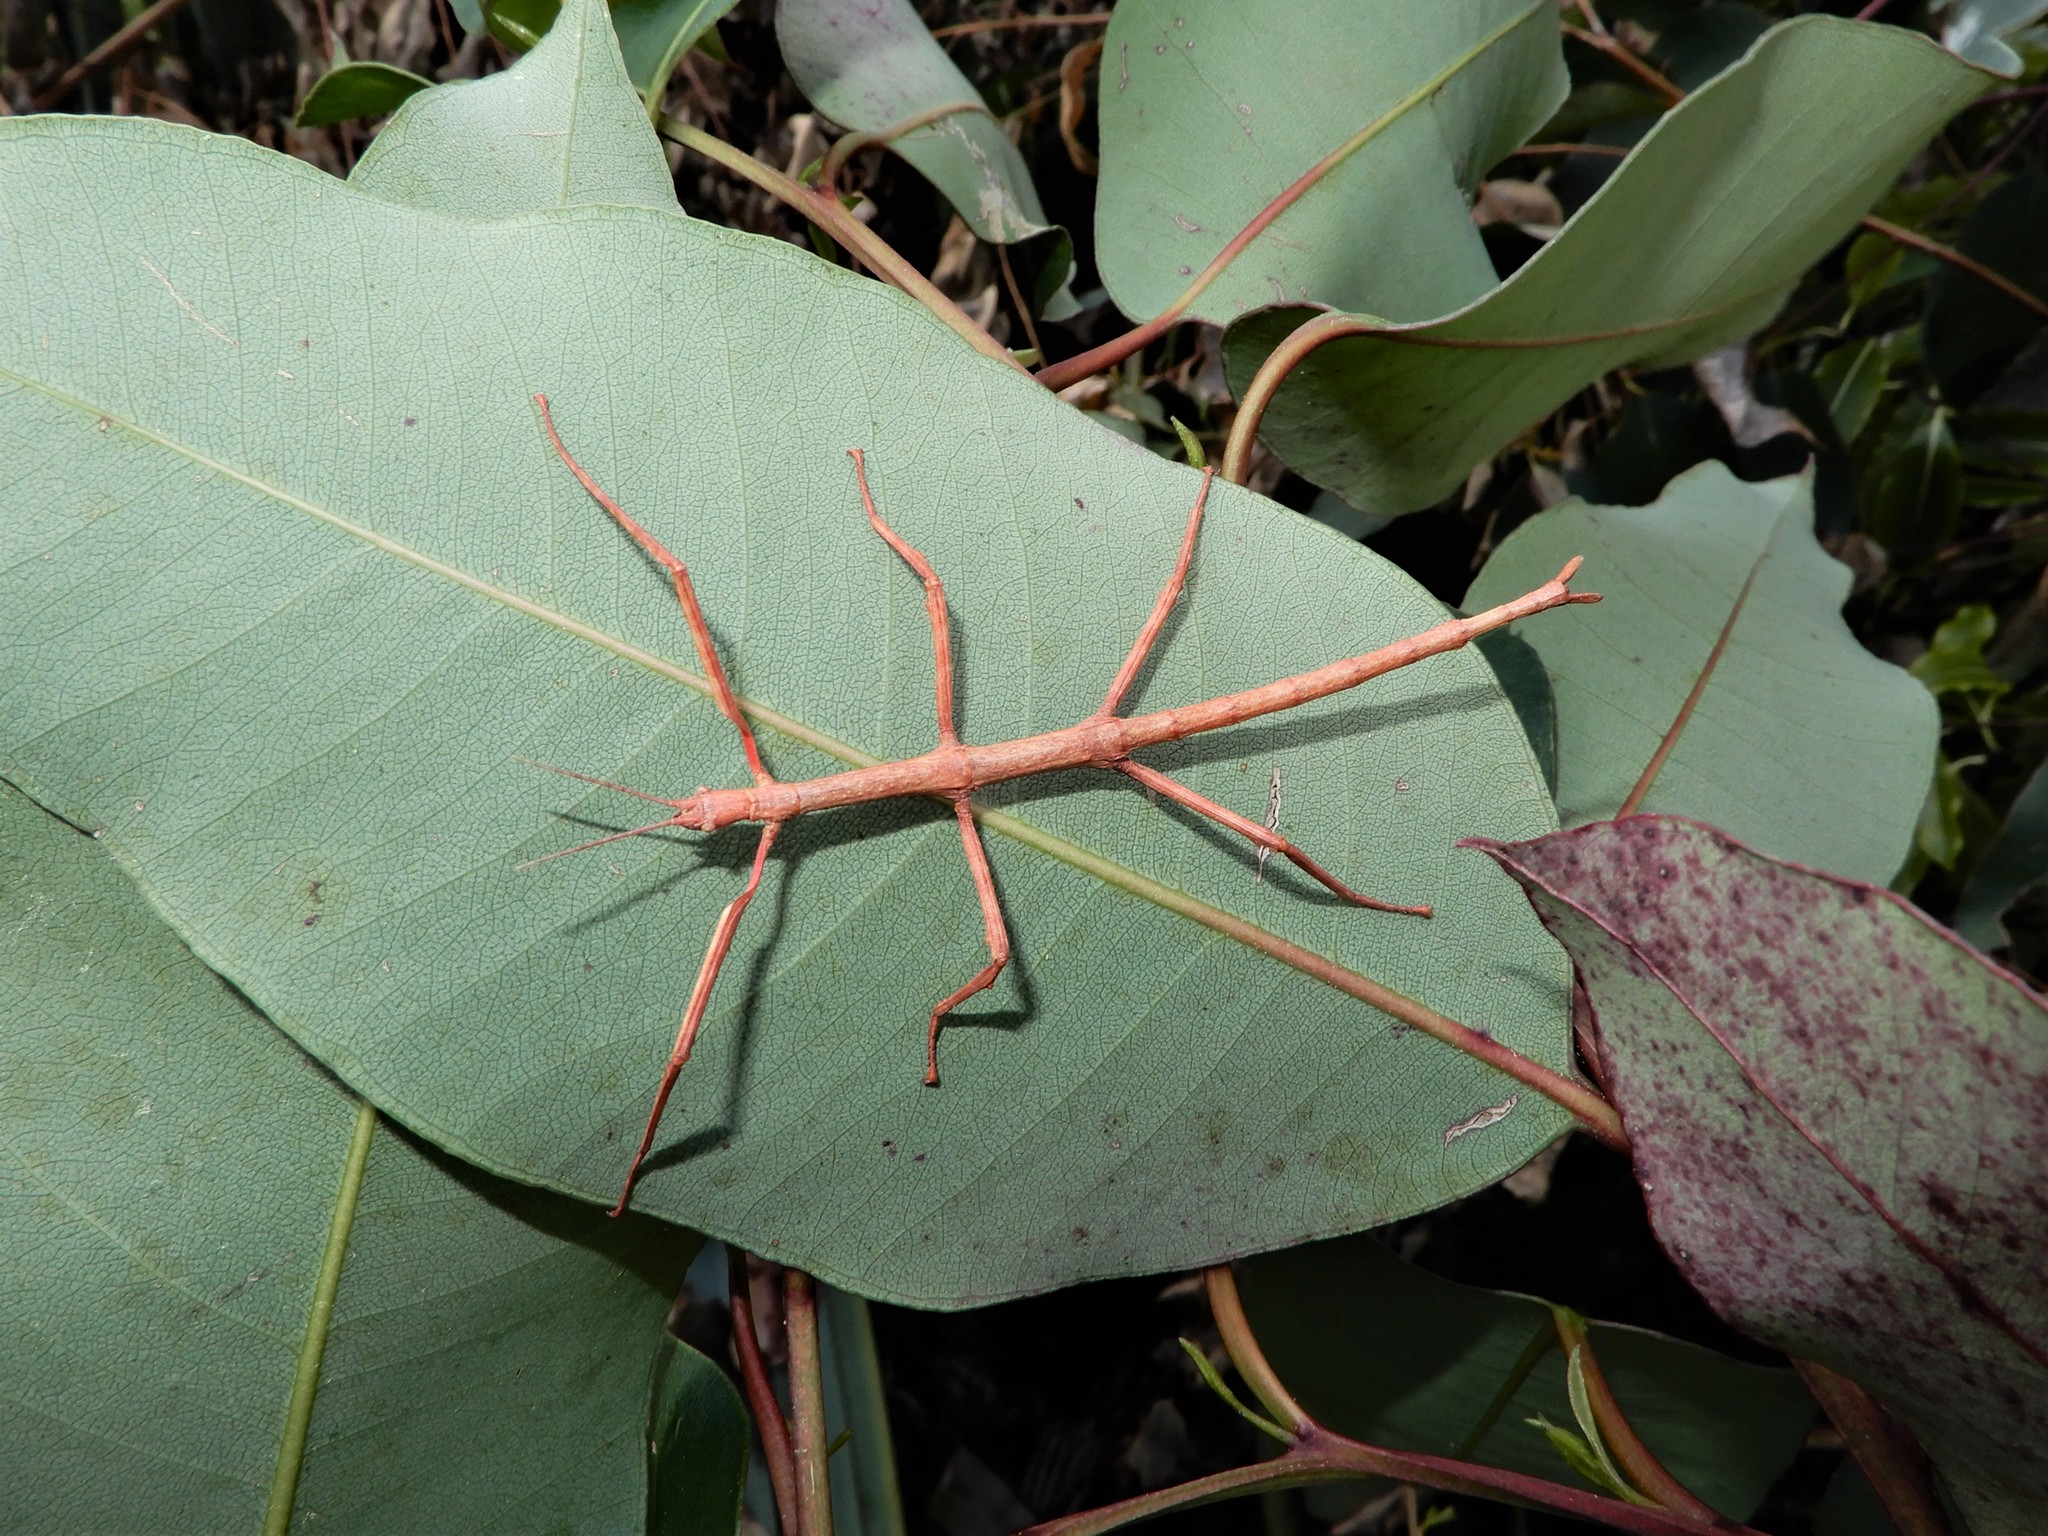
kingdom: Animalia
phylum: Arthropoda
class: Insecta
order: Phasmida
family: Phasmatidae
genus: Acanthoxyla
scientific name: Acanthoxyla inermis
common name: Unarmed stick insect
